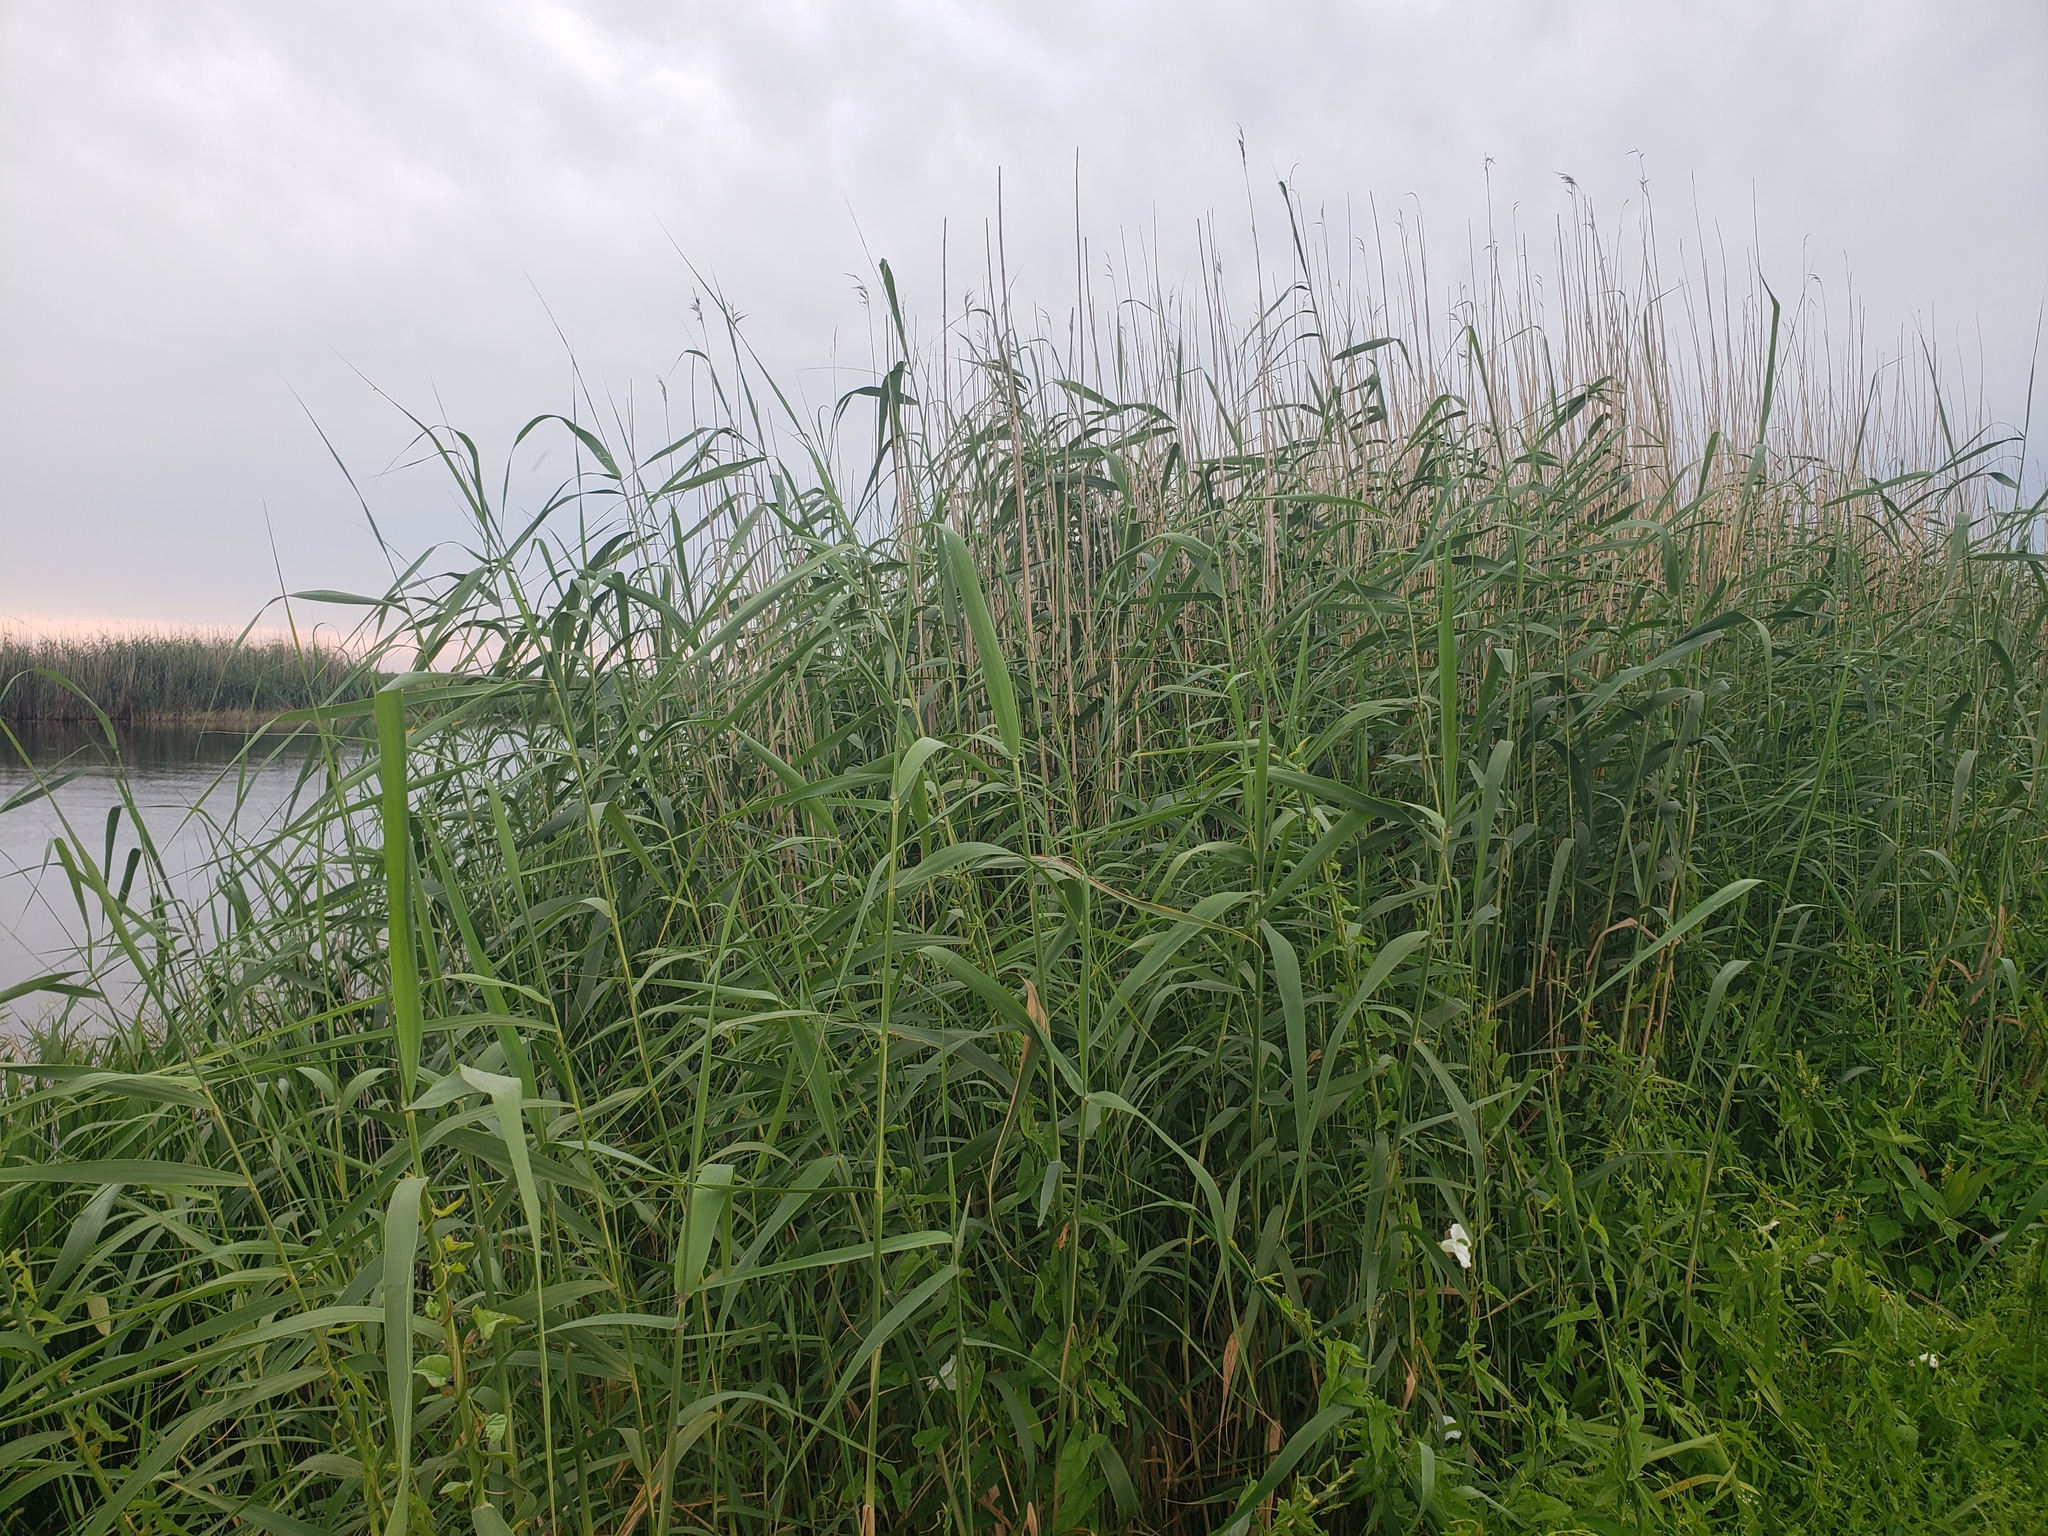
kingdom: Plantae
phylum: Tracheophyta
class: Liliopsida
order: Poales
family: Poaceae
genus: Phragmites
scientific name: Phragmites australis
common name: Common reed
